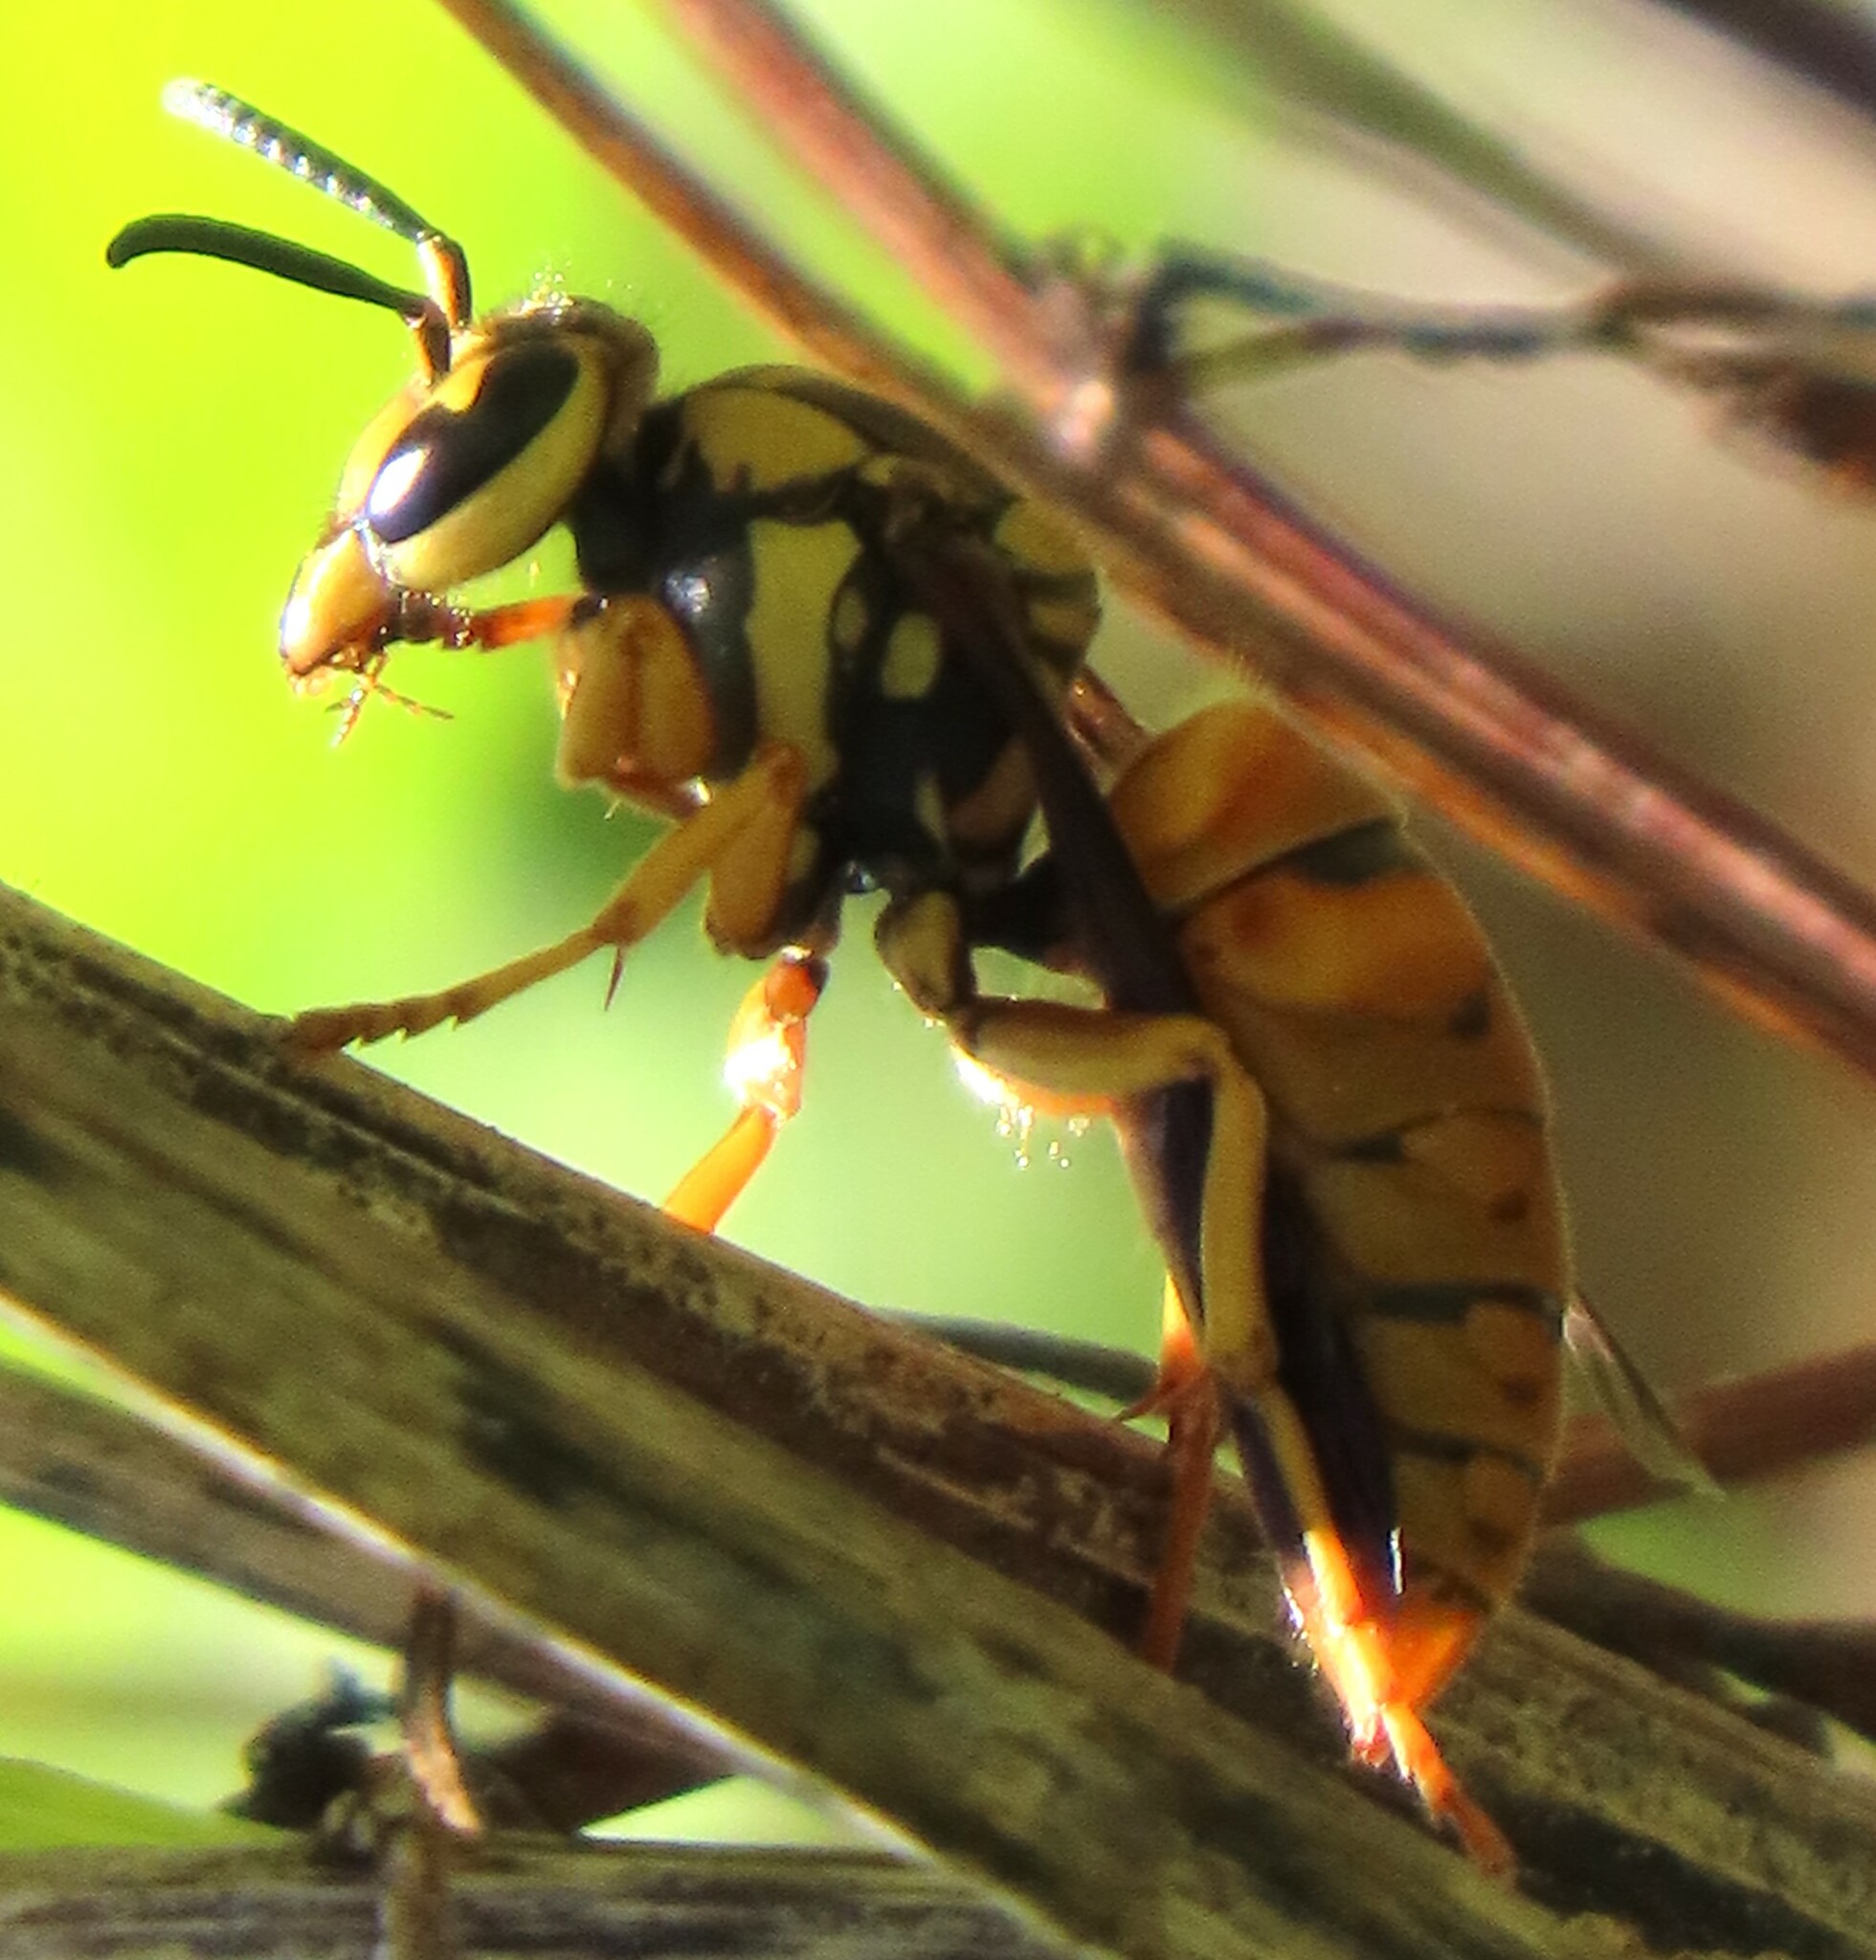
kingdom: Animalia
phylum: Arthropoda
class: Insecta
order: Hymenoptera
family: Vespidae
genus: Vespula
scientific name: Vespula squamosa
